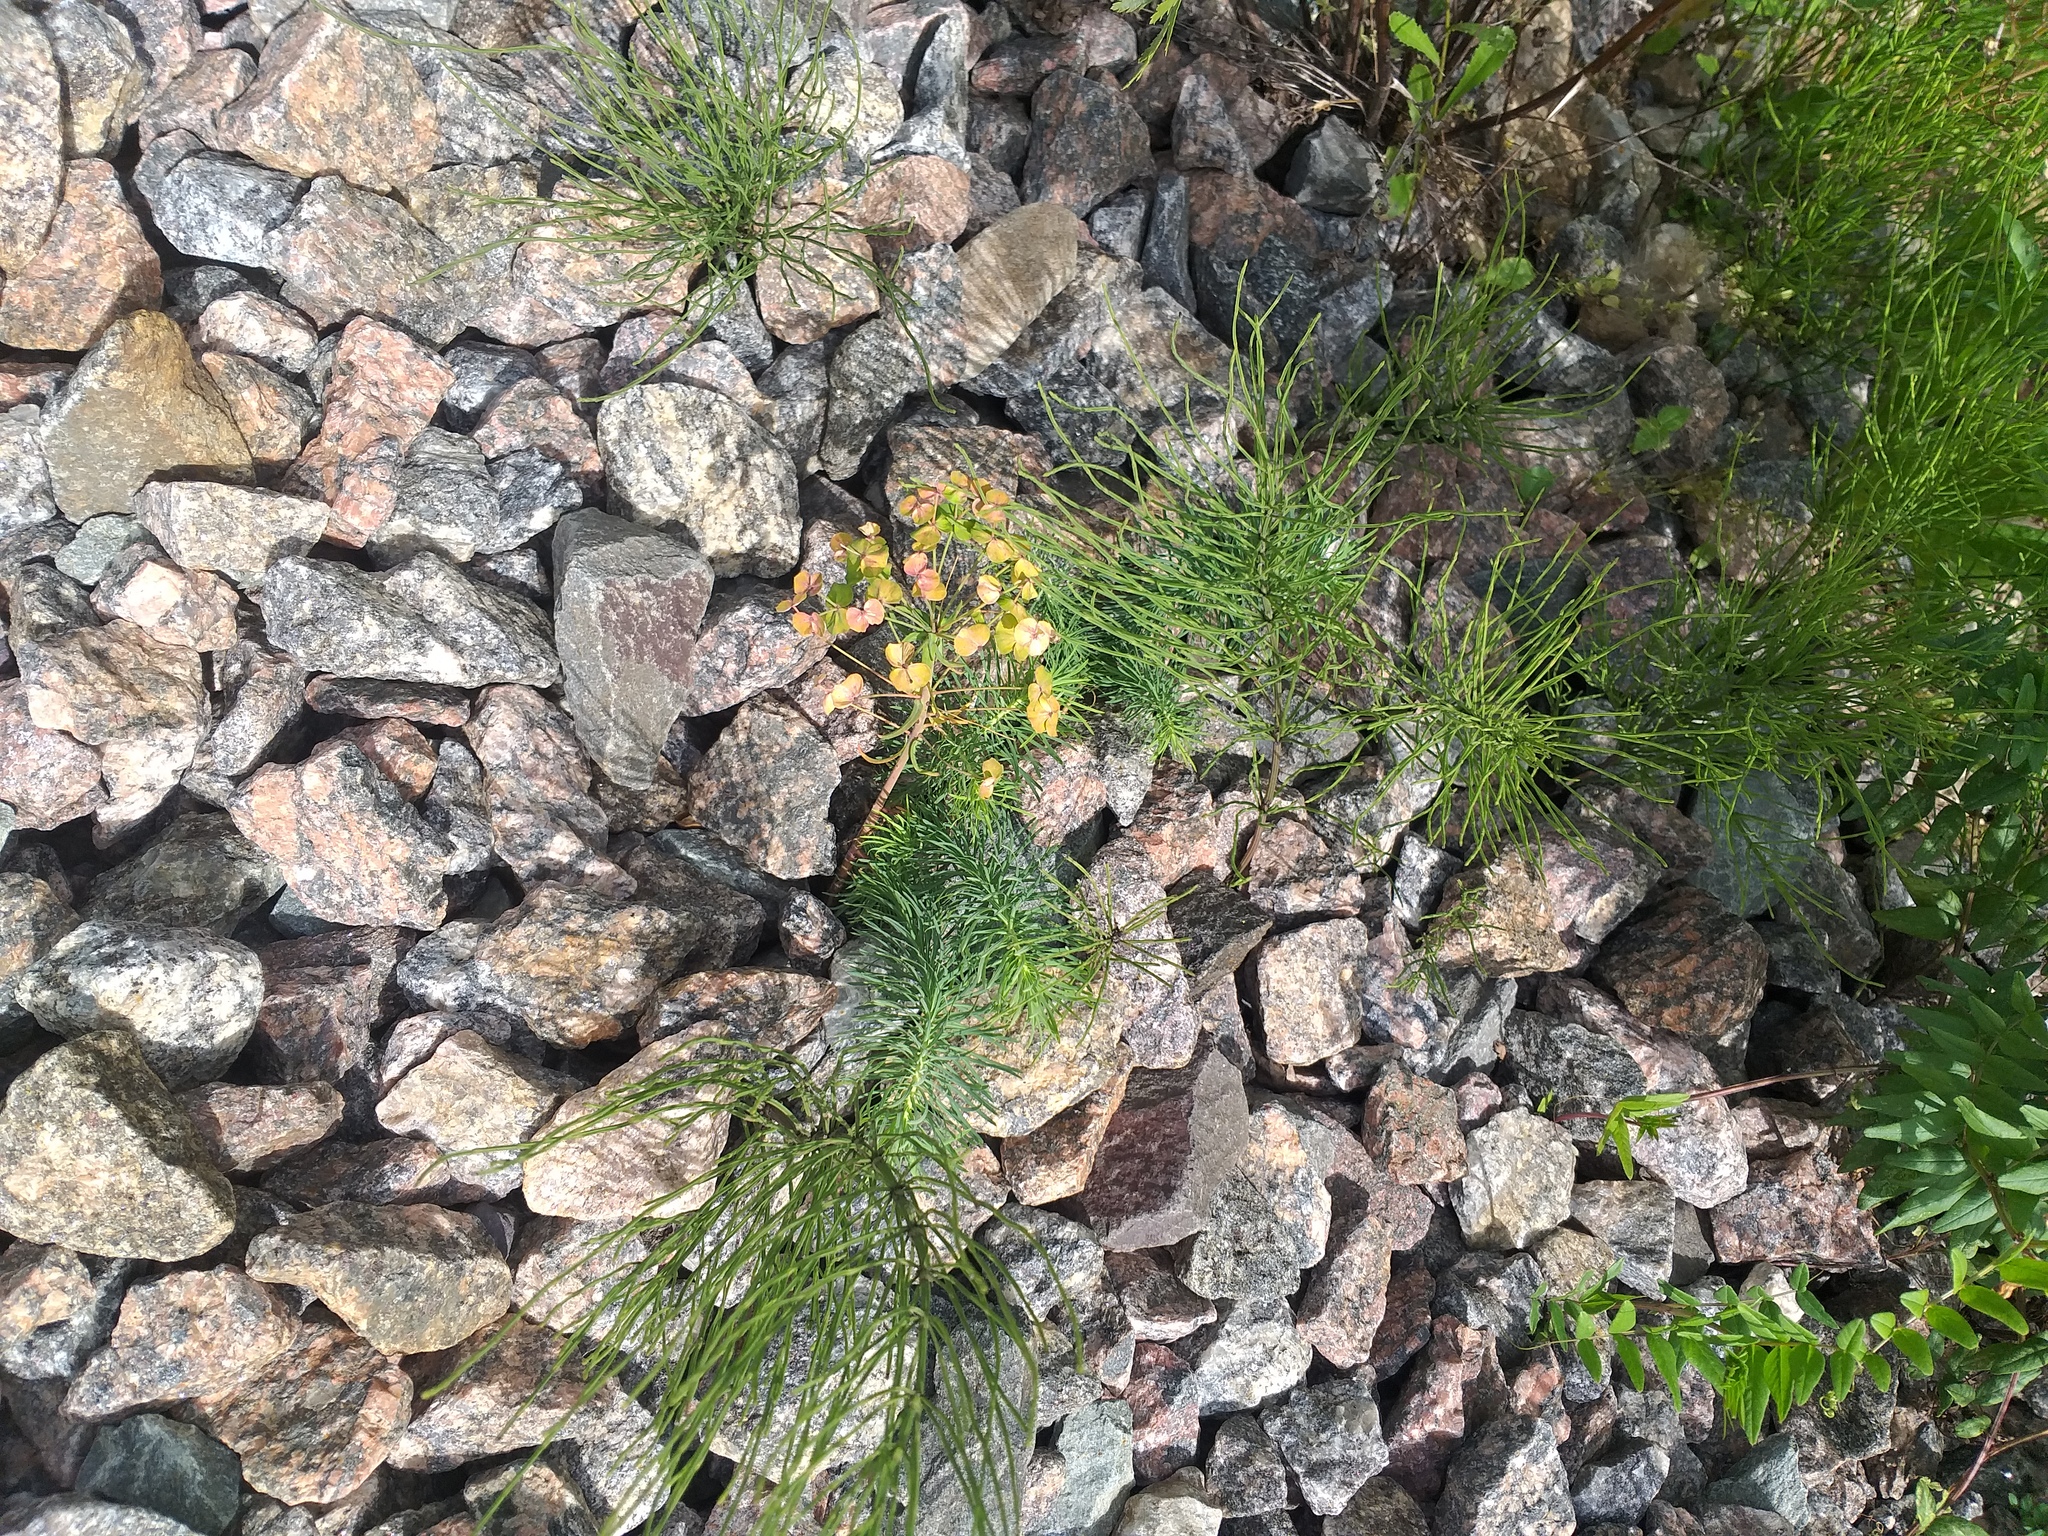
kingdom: Plantae
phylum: Tracheophyta
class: Magnoliopsida
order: Malpighiales
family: Euphorbiaceae
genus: Euphorbia
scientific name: Euphorbia cyparissias
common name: Cypress spurge
